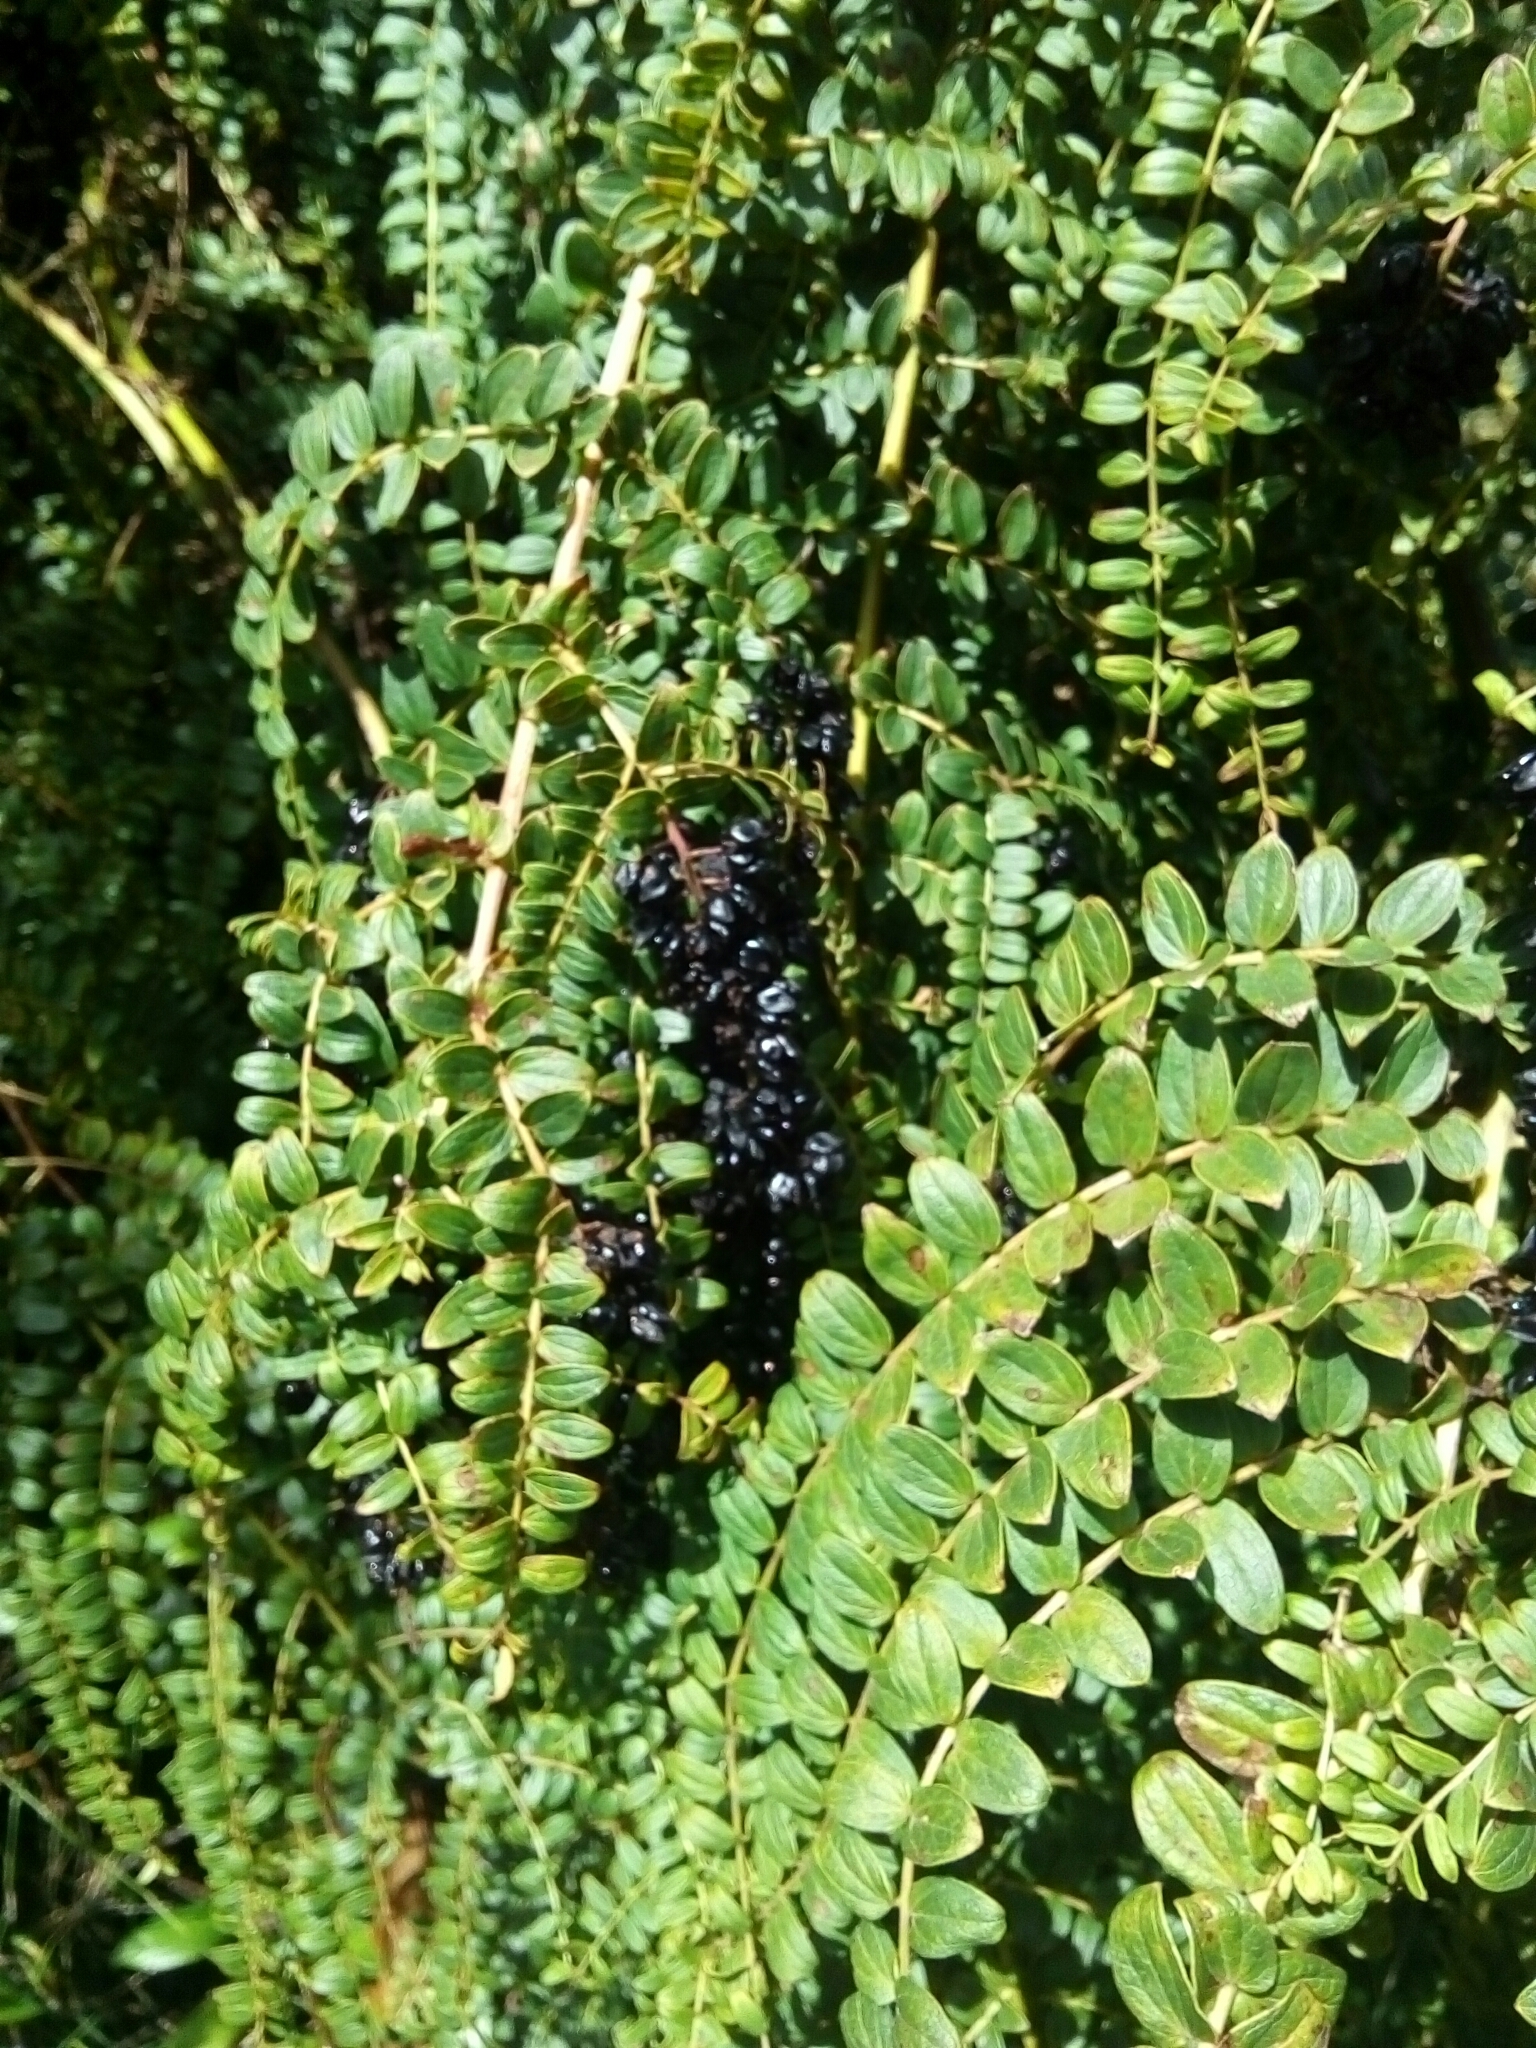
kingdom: Plantae
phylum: Tracheophyta
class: Magnoliopsida
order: Cucurbitales
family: Coriariaceae
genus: Coriaria
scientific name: Coriaria ruscifolia
